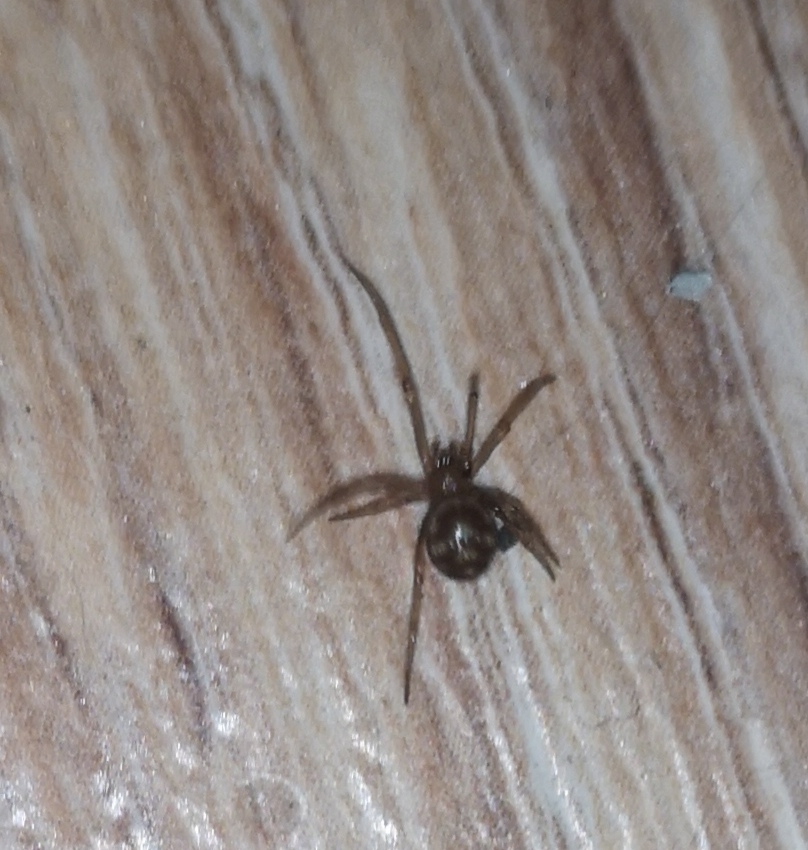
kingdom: Animalia
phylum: Arthropoda
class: Arachnida
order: Araneae
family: Theridiidae
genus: Steatoda
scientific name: Steatoda grossa
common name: False black widow
